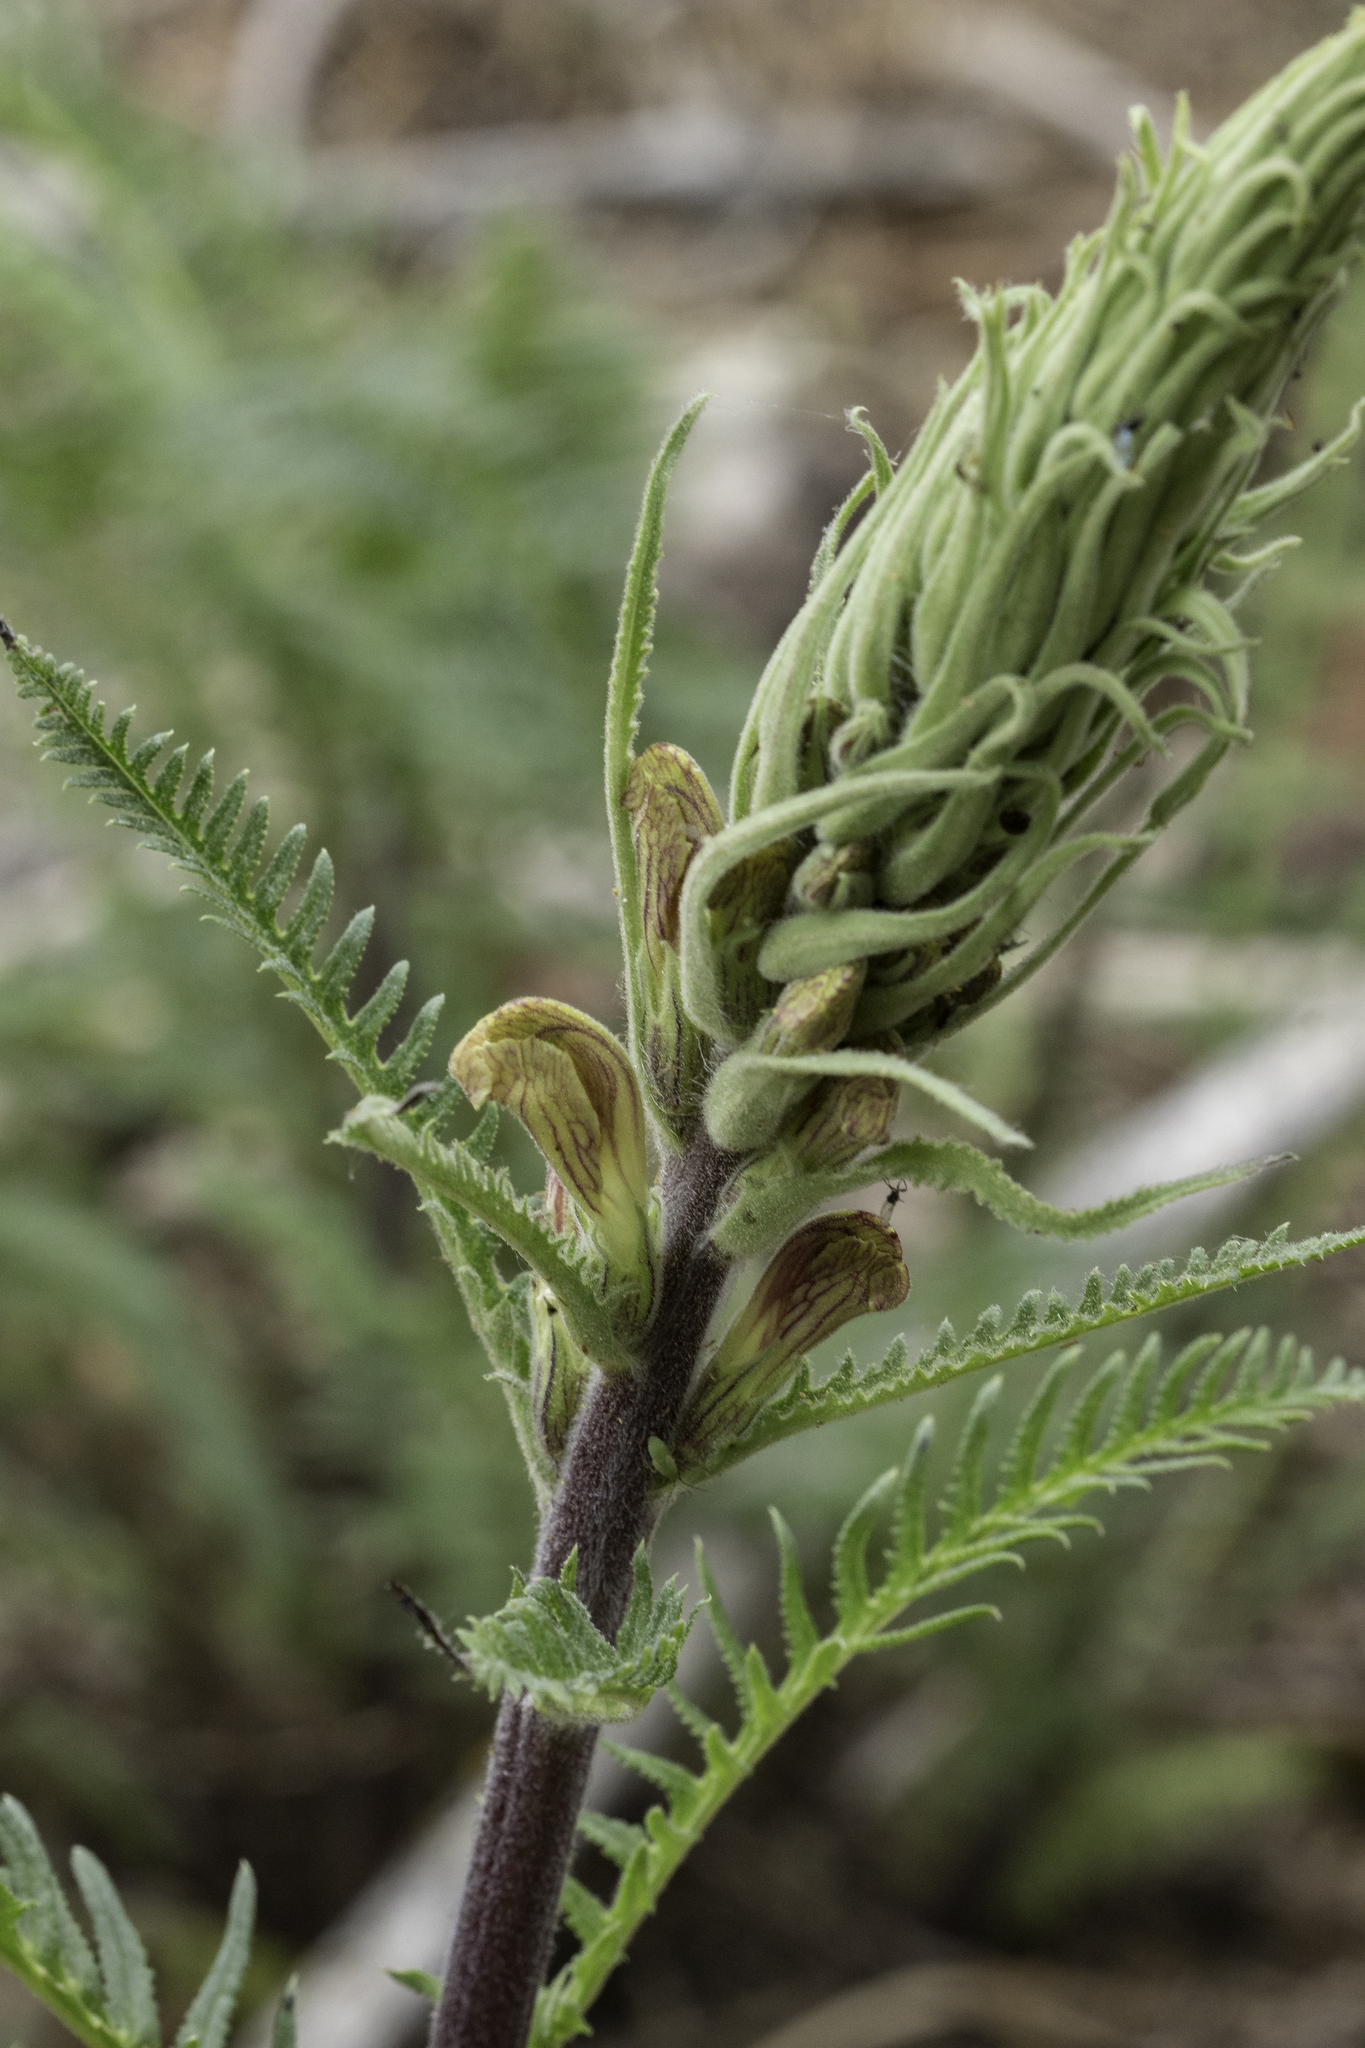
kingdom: Plantae
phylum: Tracheophyta
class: Magnoliopsida
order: Lamiales
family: Orobanchaceae
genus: Pedicularis
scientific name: Pedicularis procera
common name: Gray's lousewort
